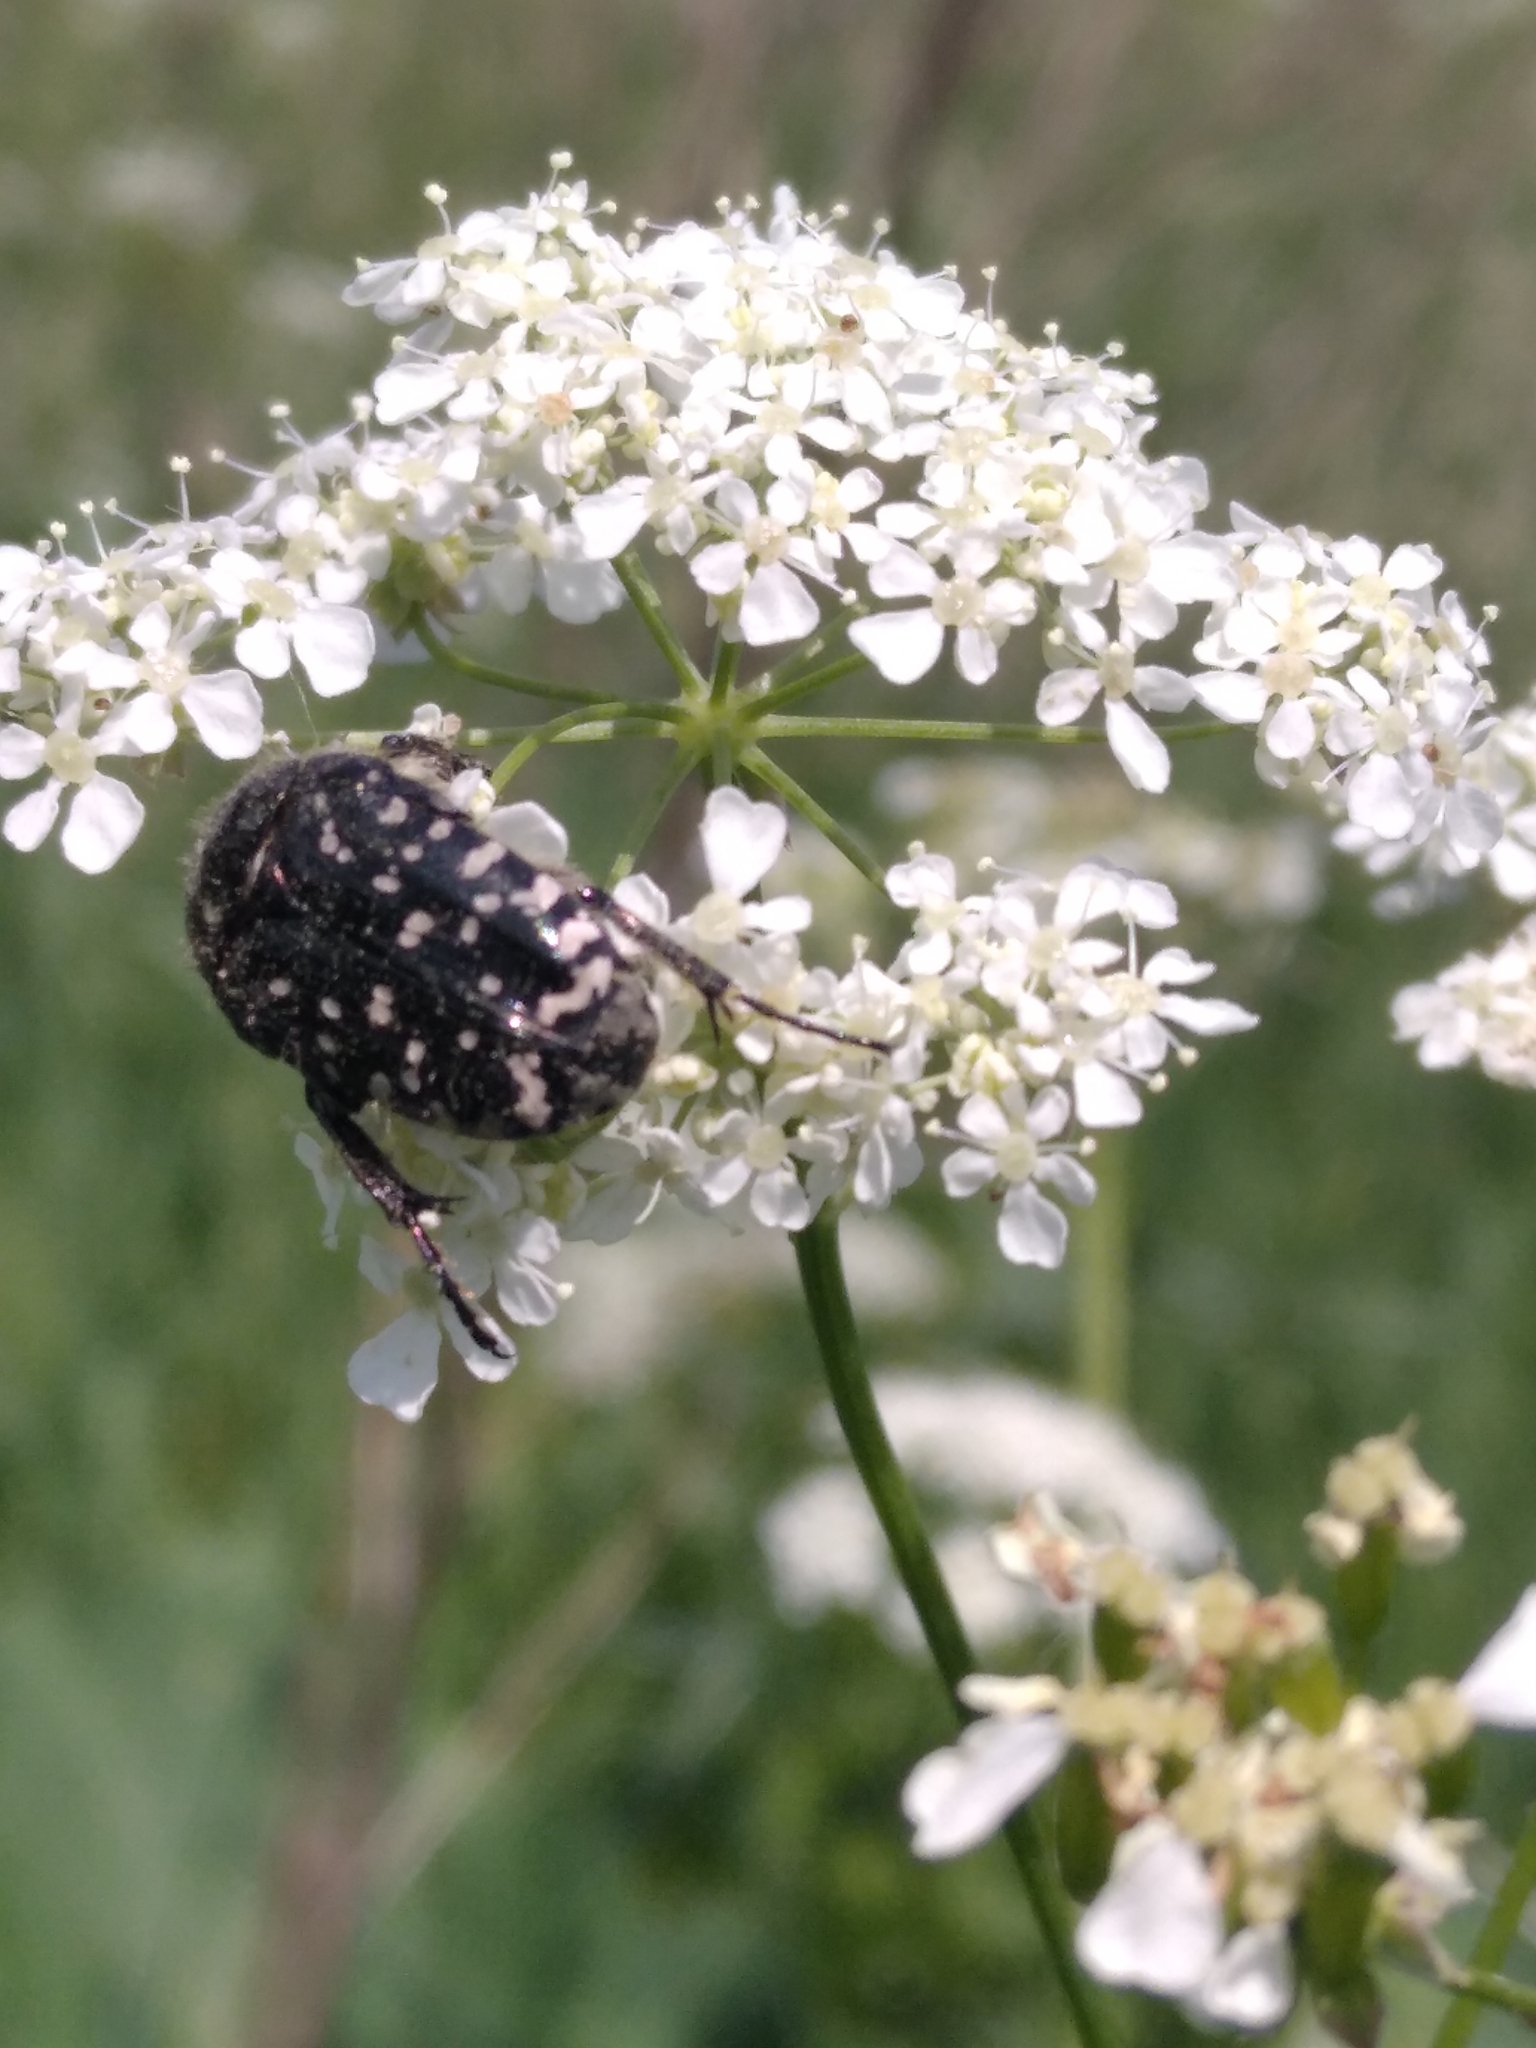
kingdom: Animalia
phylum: Arthropoda
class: Insecta
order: Coleoptera
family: Scarabaeidae
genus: Oxythyrea
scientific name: Oxythyrea funesta
